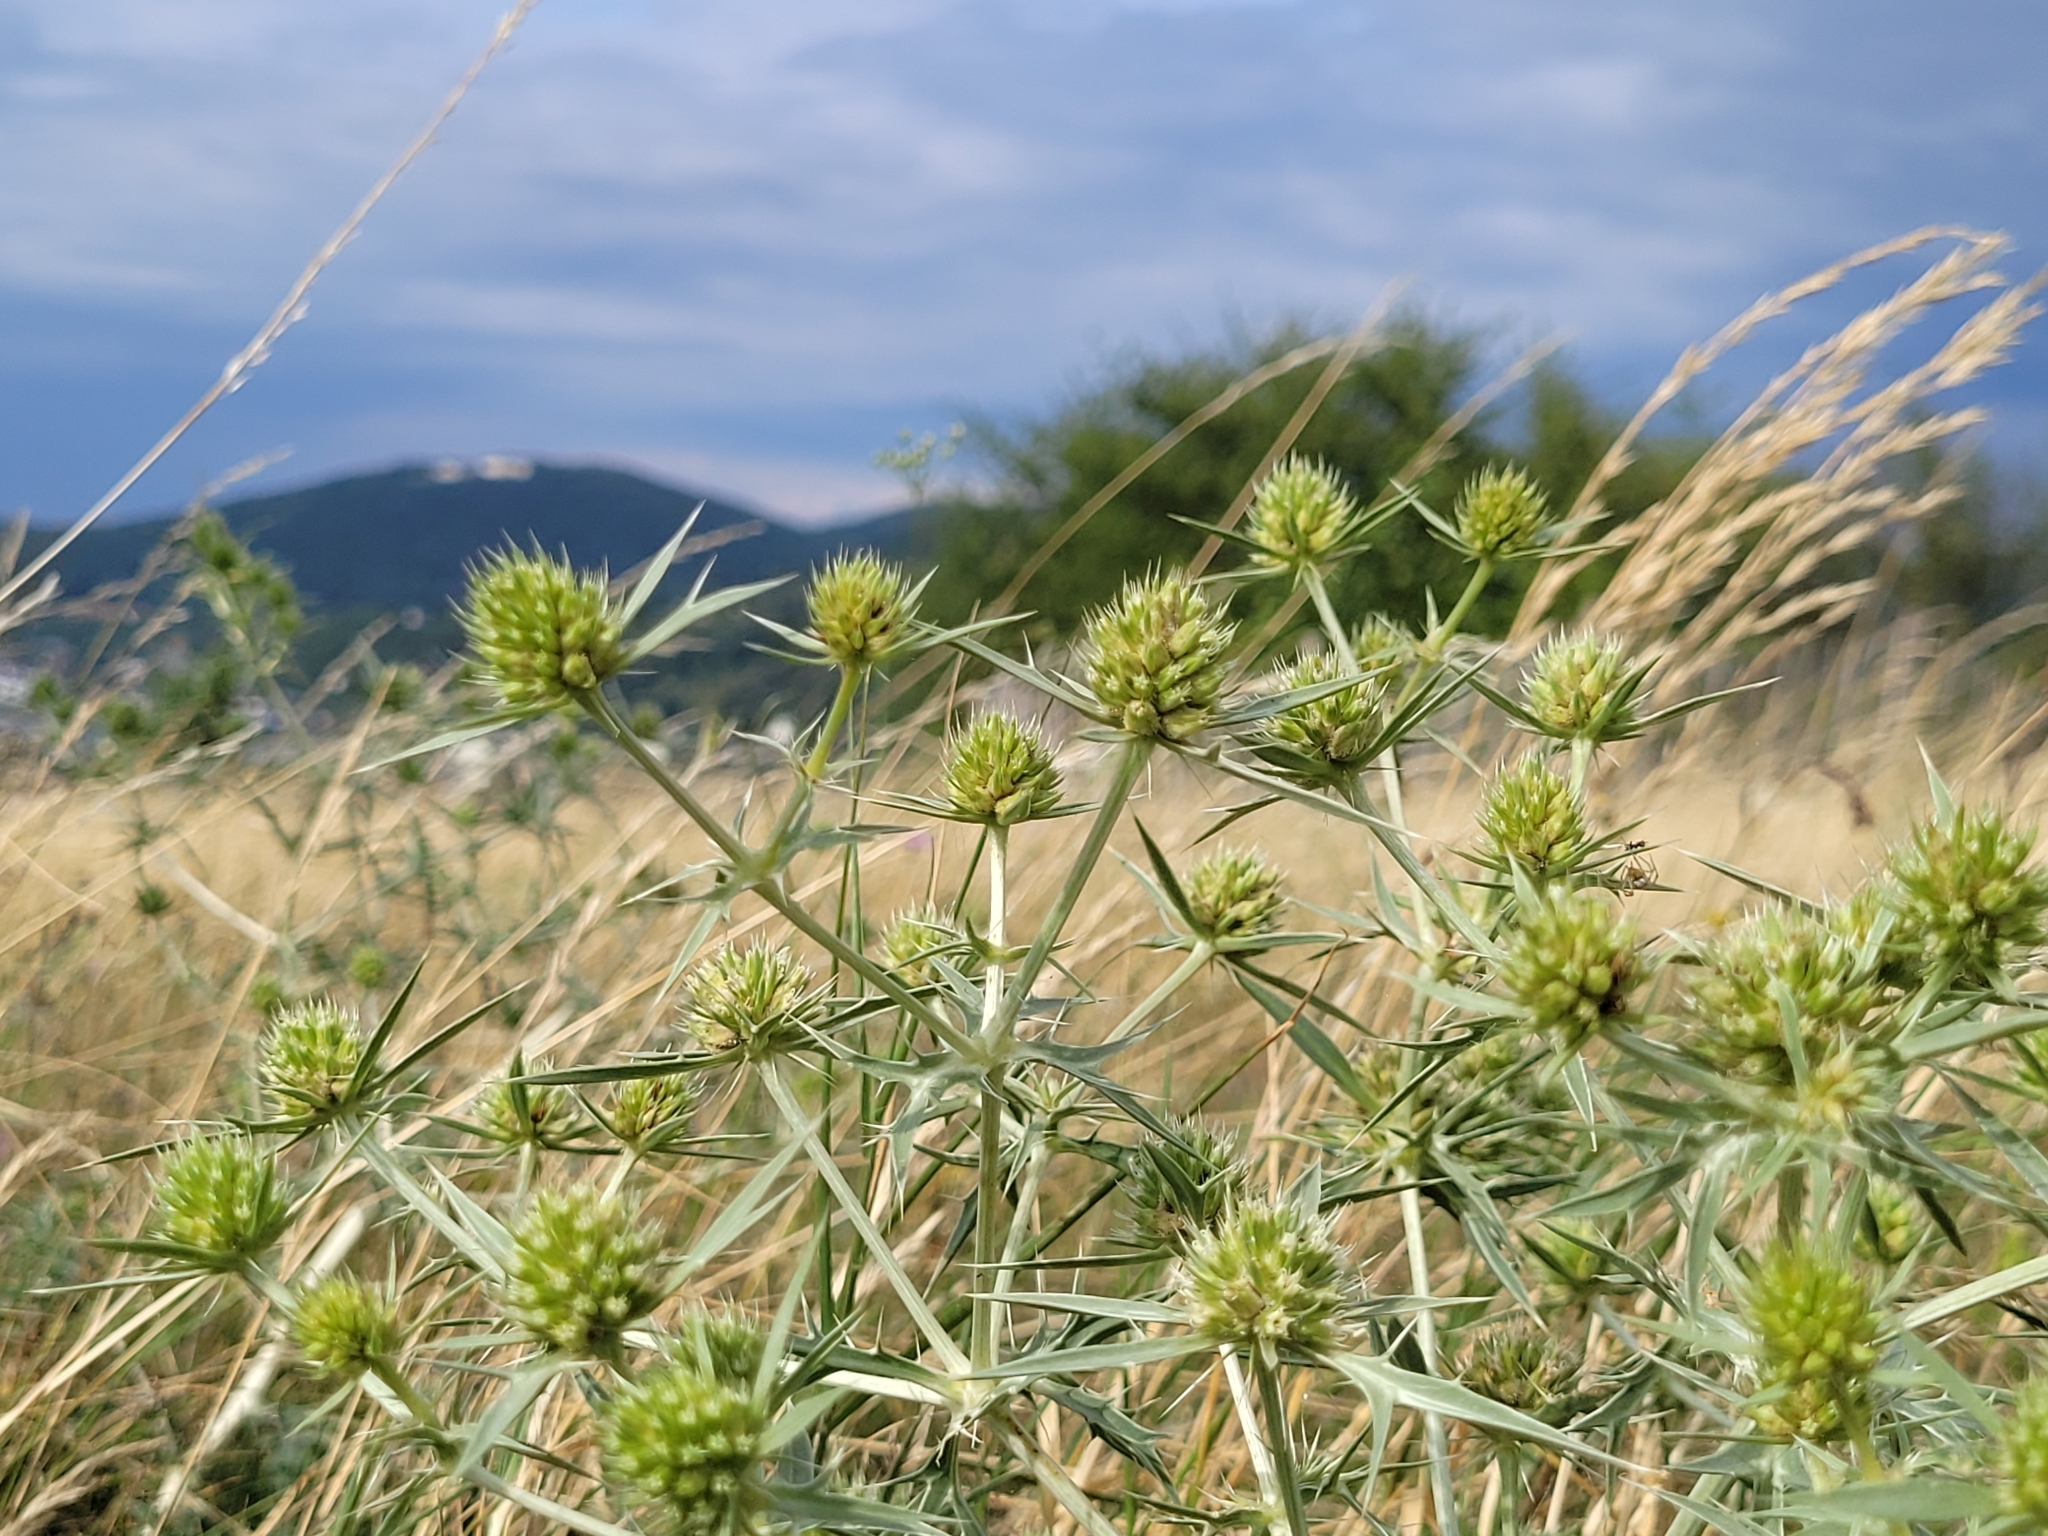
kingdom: Plantae
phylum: Tracheophyta
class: Magnoliopsida
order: Apiales
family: Apiaceae
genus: Eryngium
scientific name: Eryngium campestre
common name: Field eryngo
